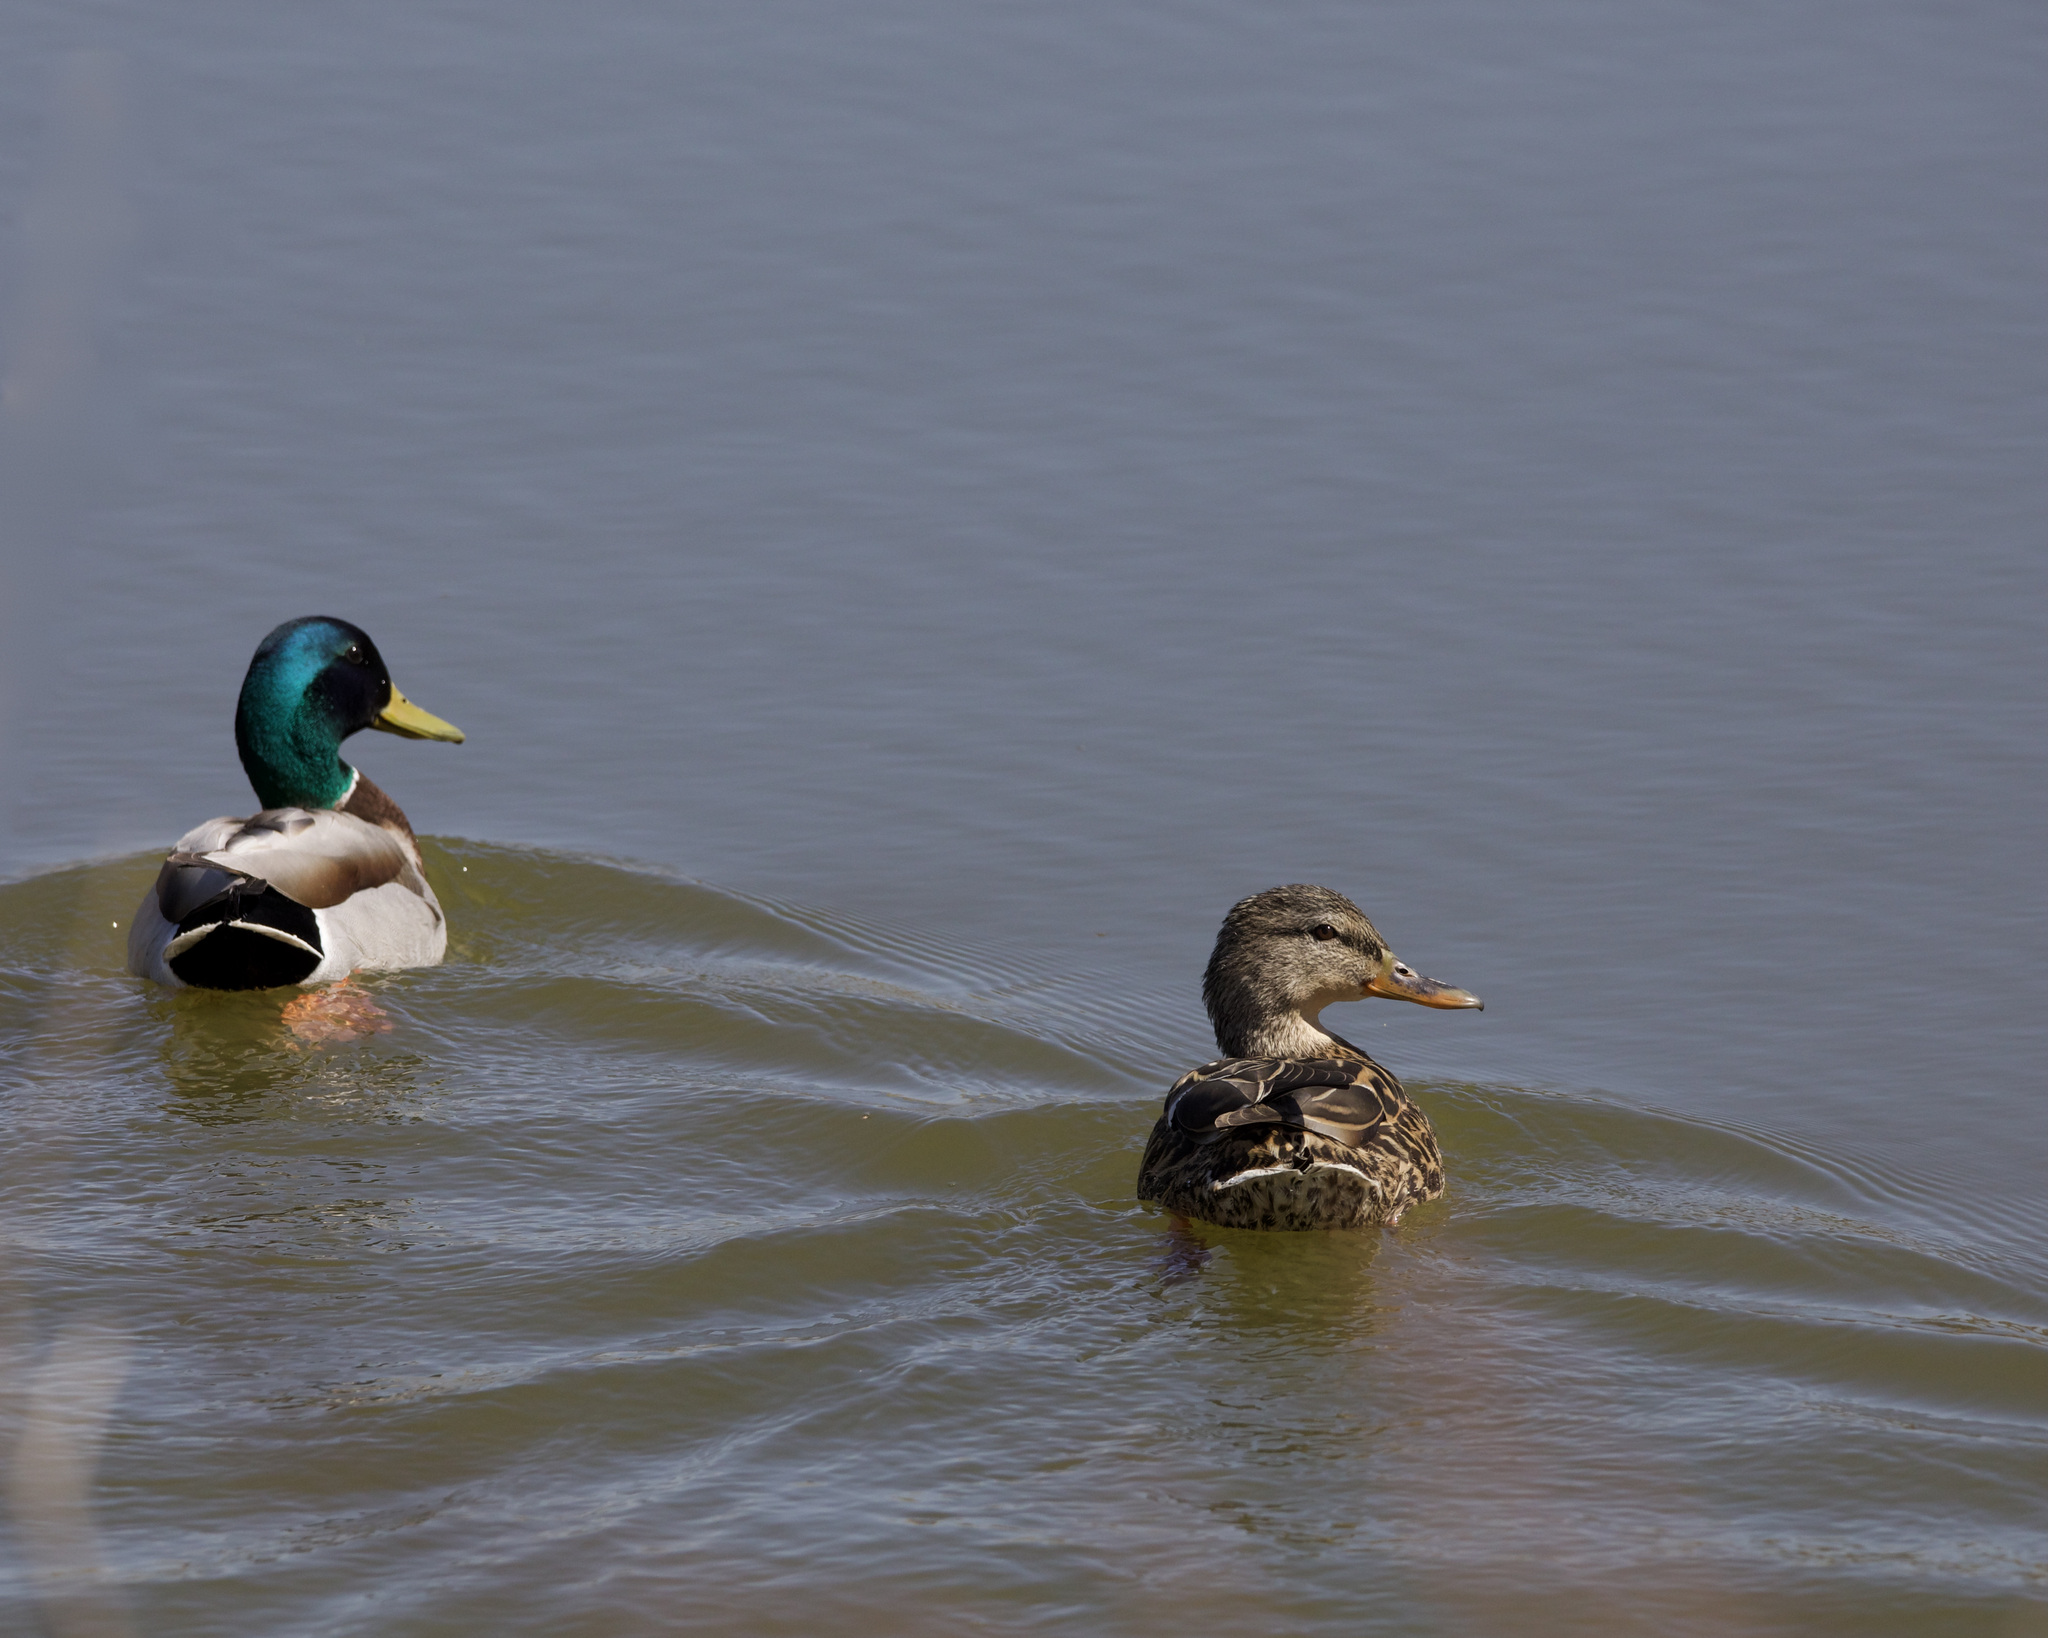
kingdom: Animalia
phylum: Chordata
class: Aves
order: Anseriformes
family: Anatidae
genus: Anas
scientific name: Anas platyrhynchos
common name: Mallard
